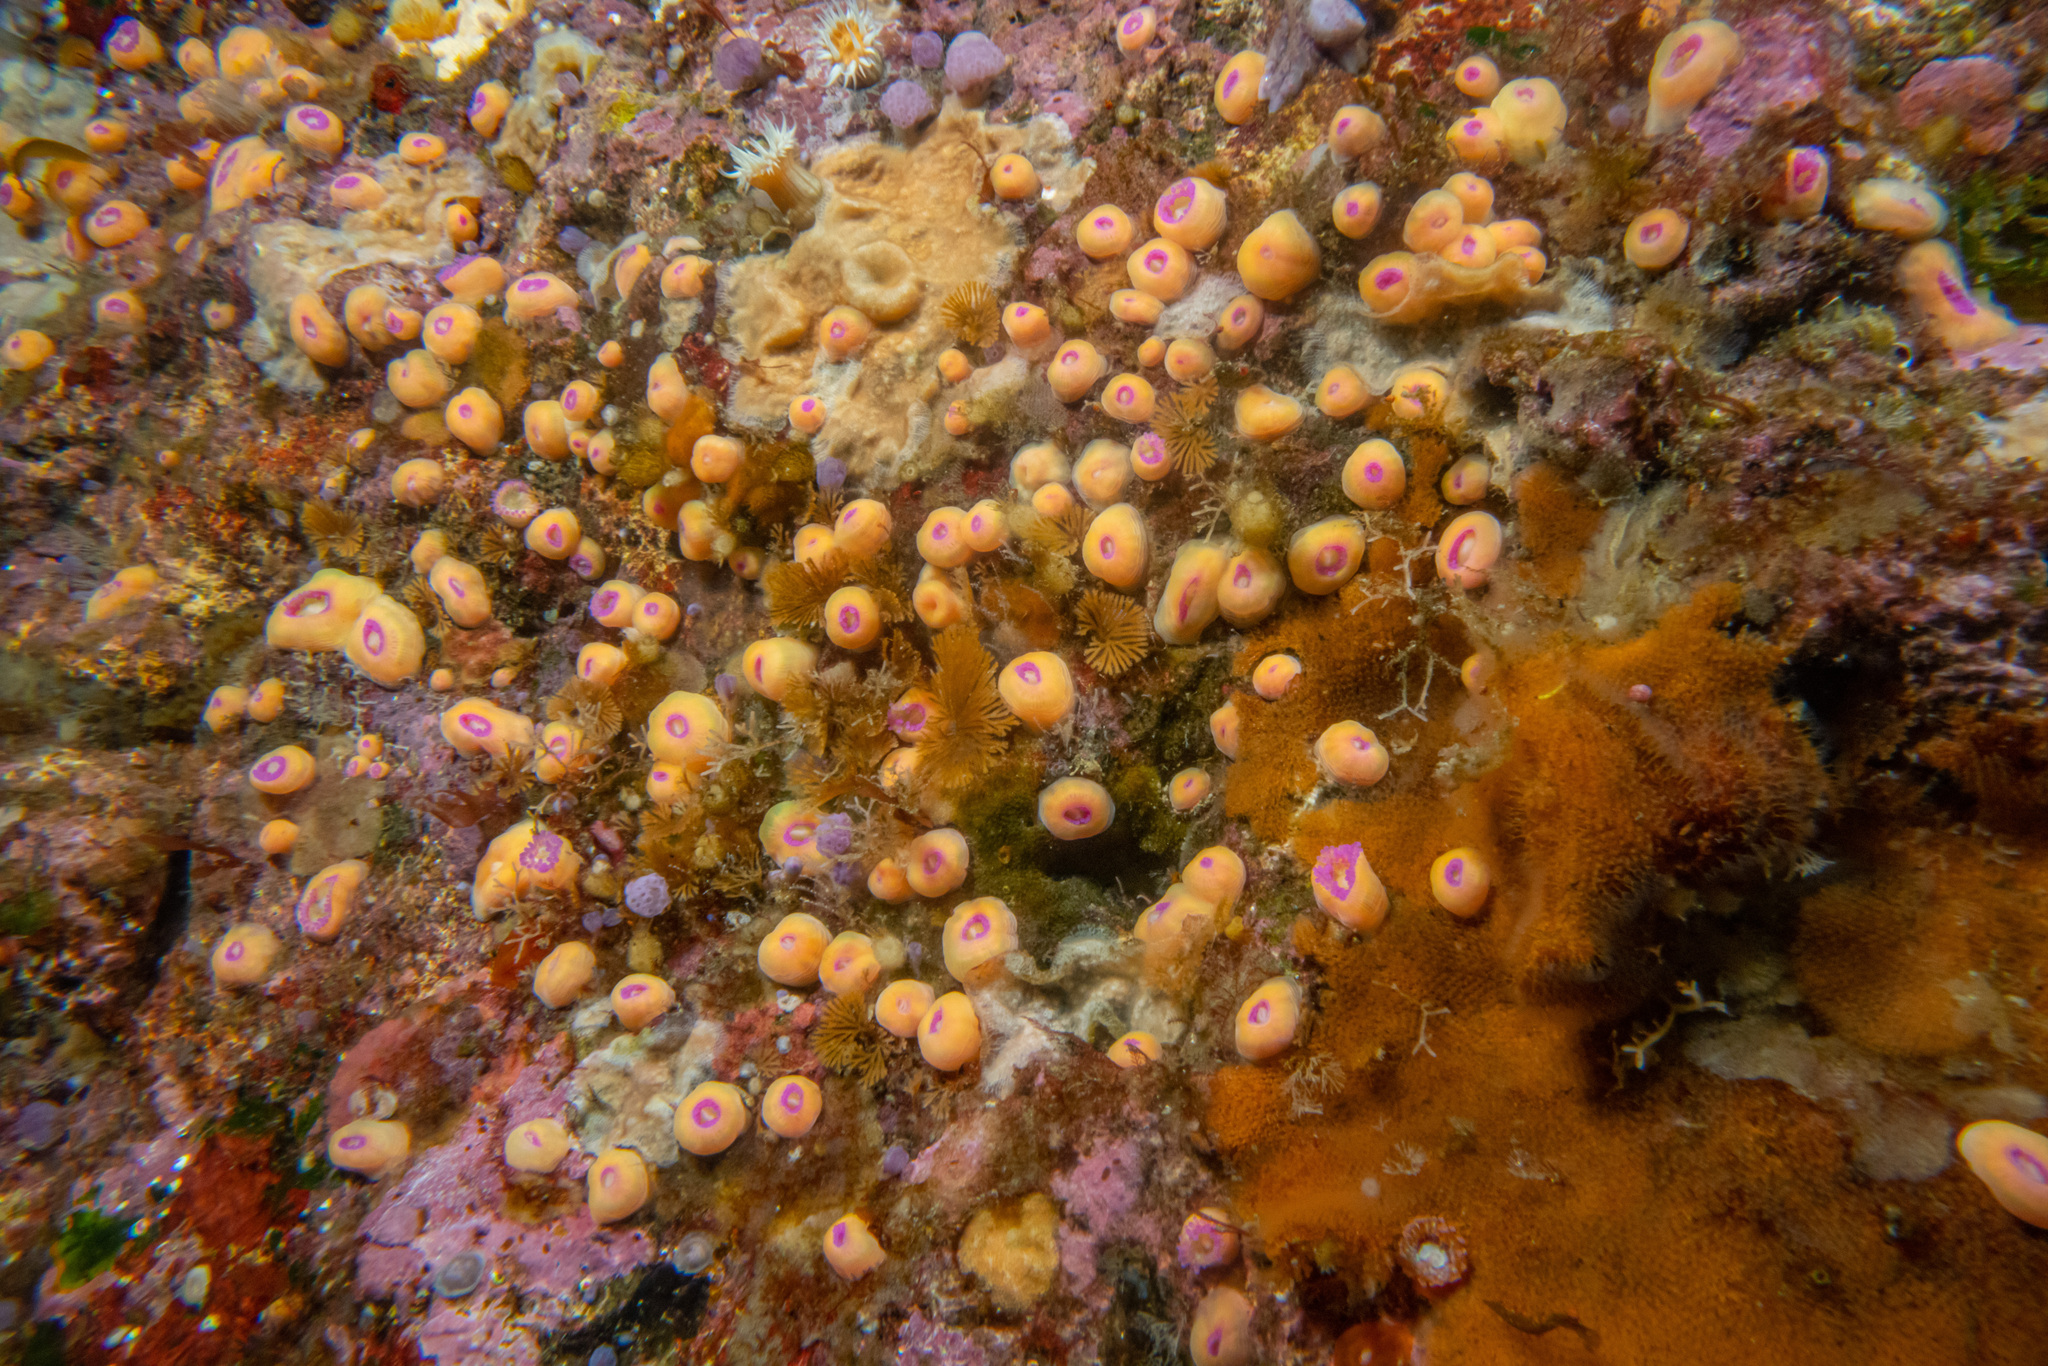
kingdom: Animalia
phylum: Cnidaria
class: Anthozoa
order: Corallimorpharia
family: Corallimorphidae
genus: Corynactis
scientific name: Corynactis australis
